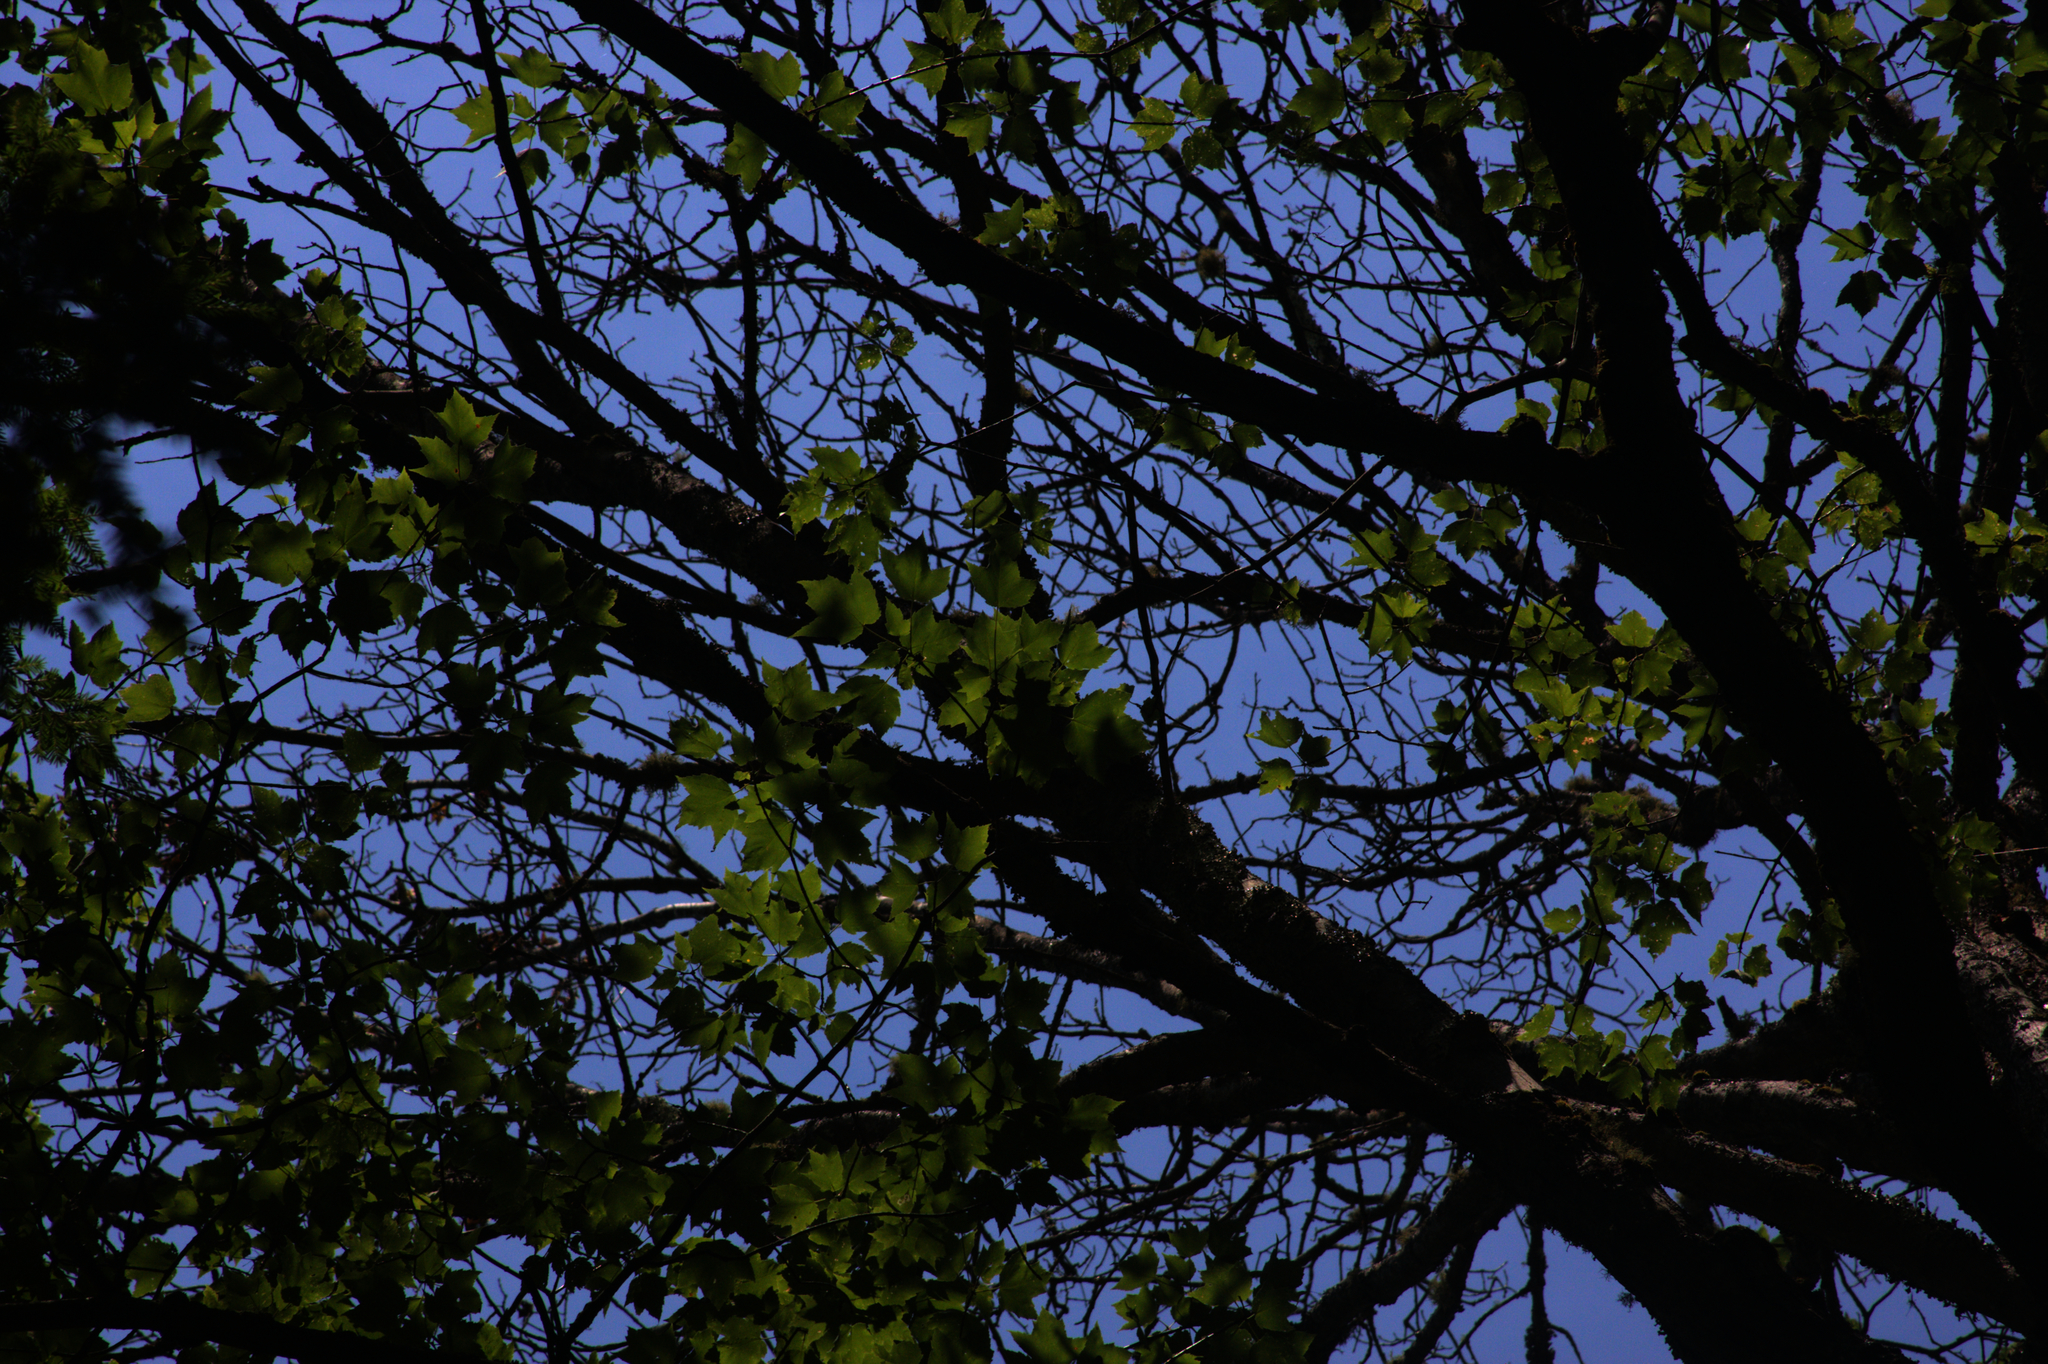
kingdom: Plantae
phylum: Tracheophyta
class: Magnoliopsida
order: Sapindales
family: Sapindaceae
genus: Acer
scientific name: Acer rubrum
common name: Red maple
